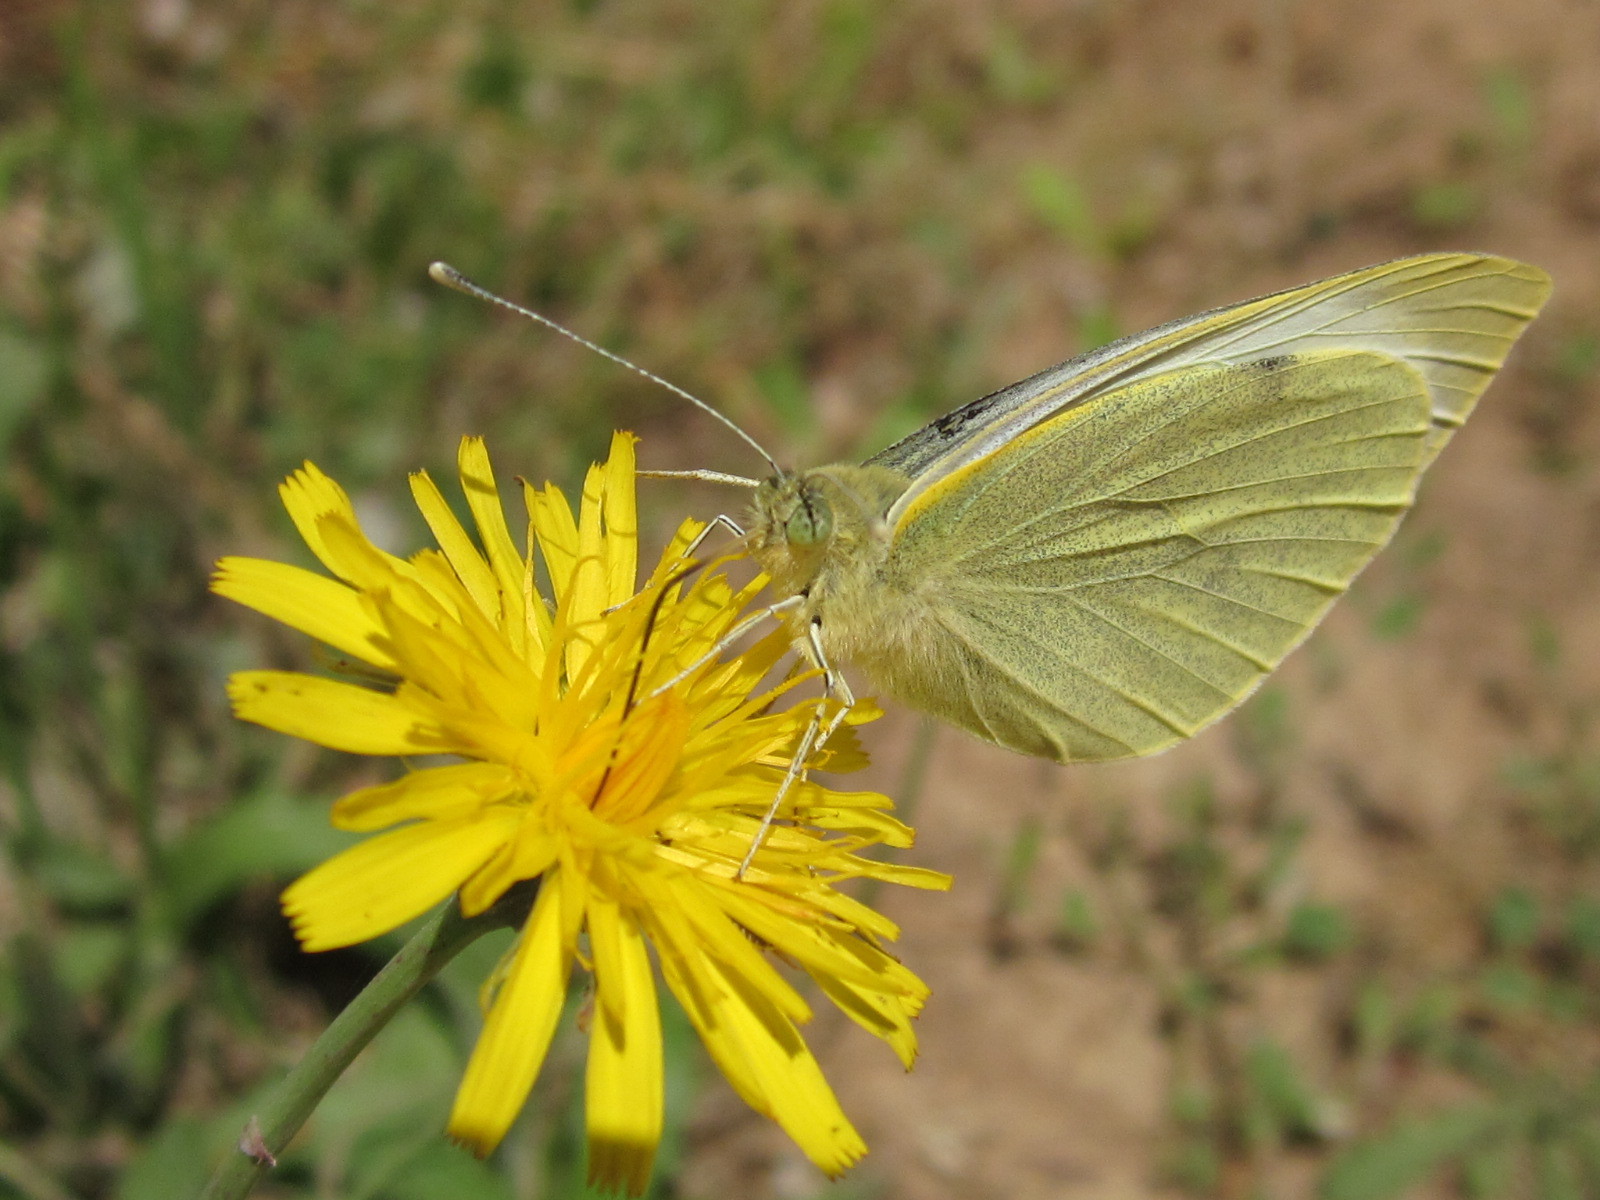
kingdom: Animalia
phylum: Arthropoda
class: Insecta
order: Lepidoptera
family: Pieridae
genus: Pieris
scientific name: Pieris brassicae
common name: Large white
